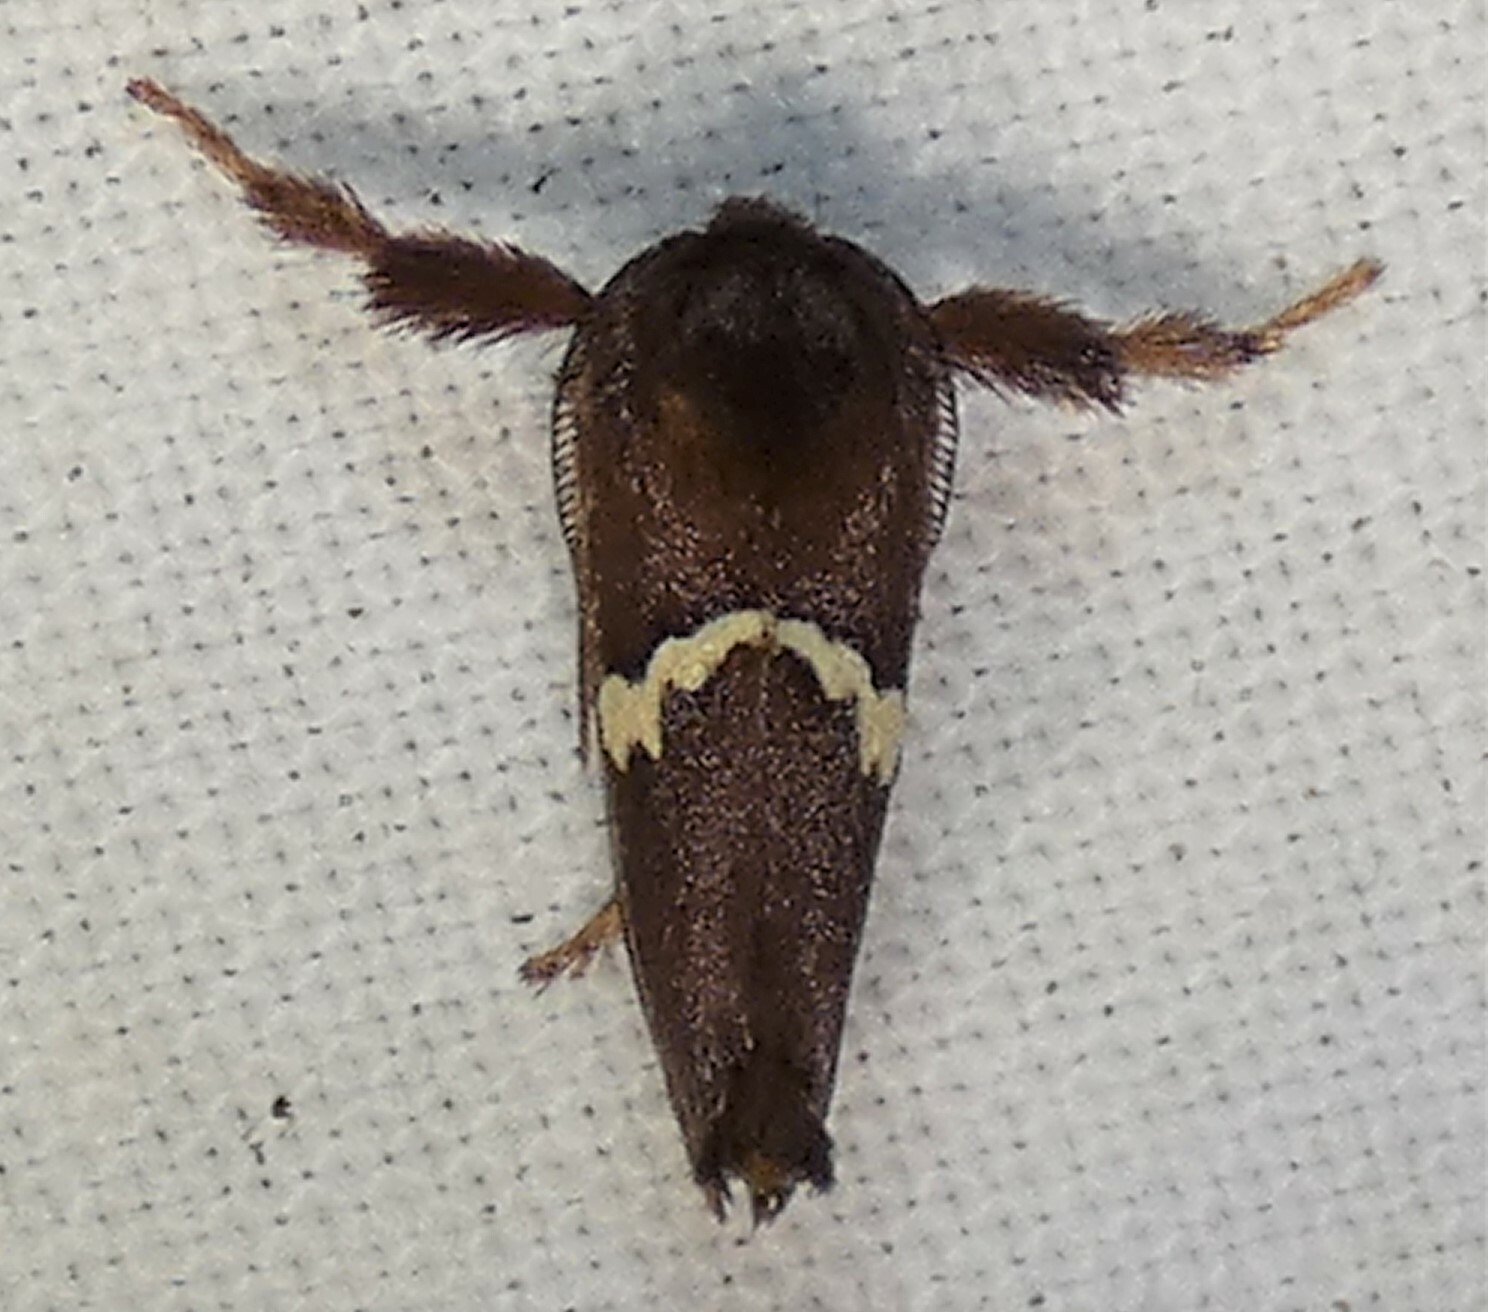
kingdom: Animalia
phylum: Arthropoda
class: Insecta
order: Lepidoptera
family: Limacodidae
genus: Monoleuca
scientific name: Monoleuca semifascia
